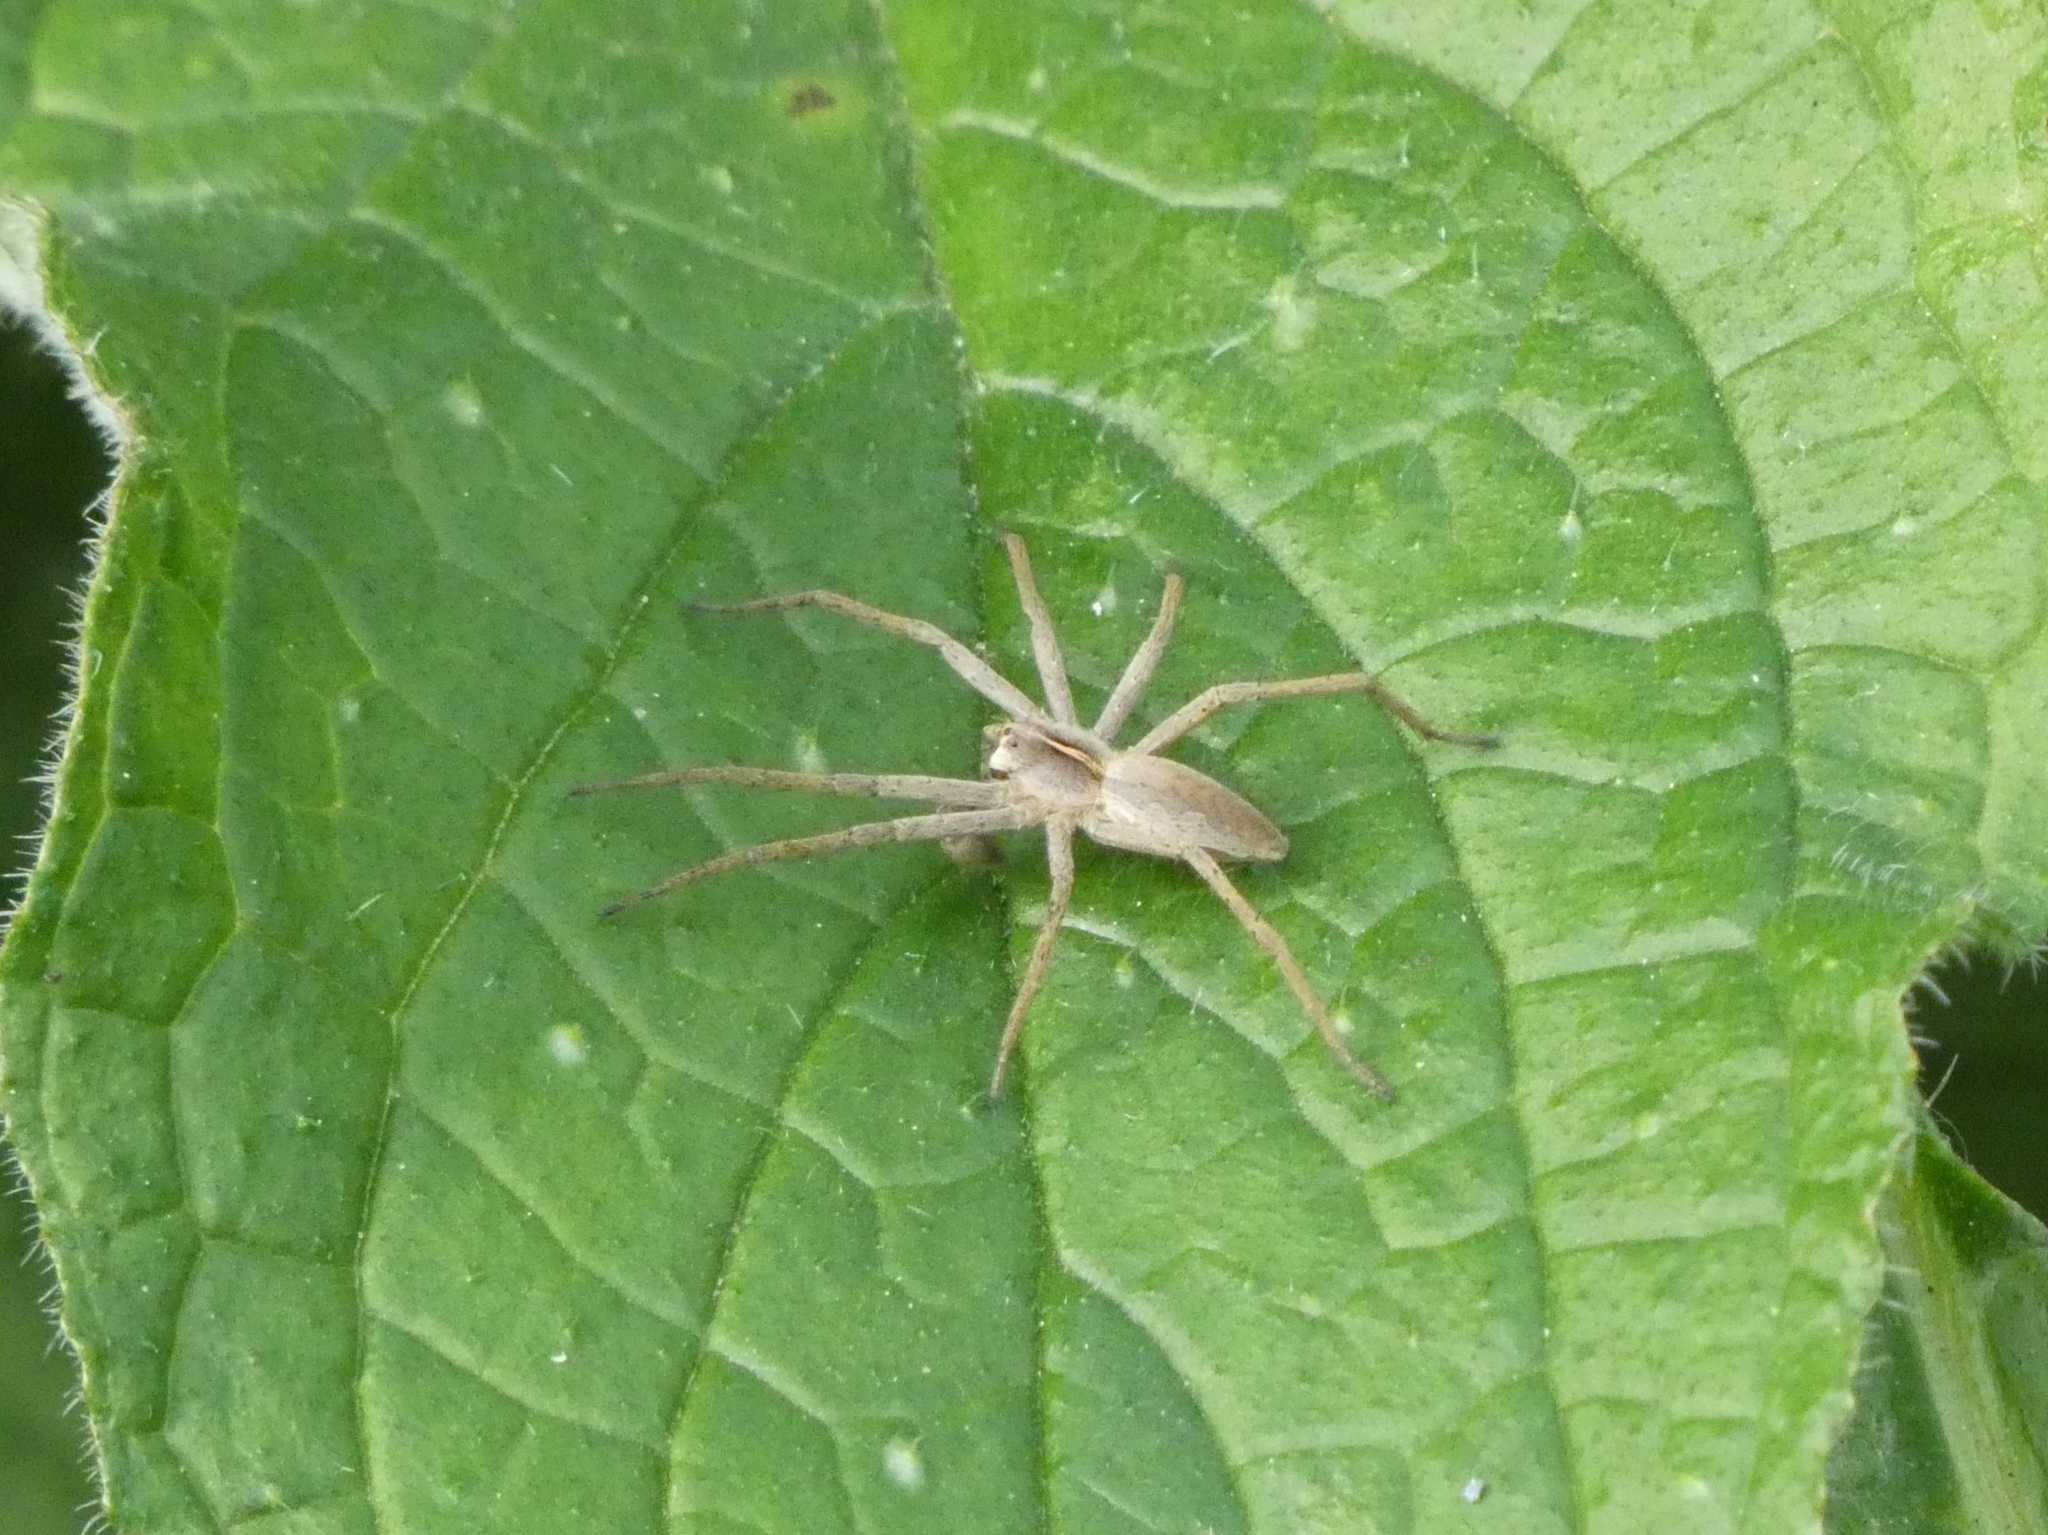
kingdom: Animalia
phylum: Arthropoda
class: Arachnida
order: Araneae
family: Pisauridae
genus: Pisaura
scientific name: Pisaura mirabilis
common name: Tent spider
